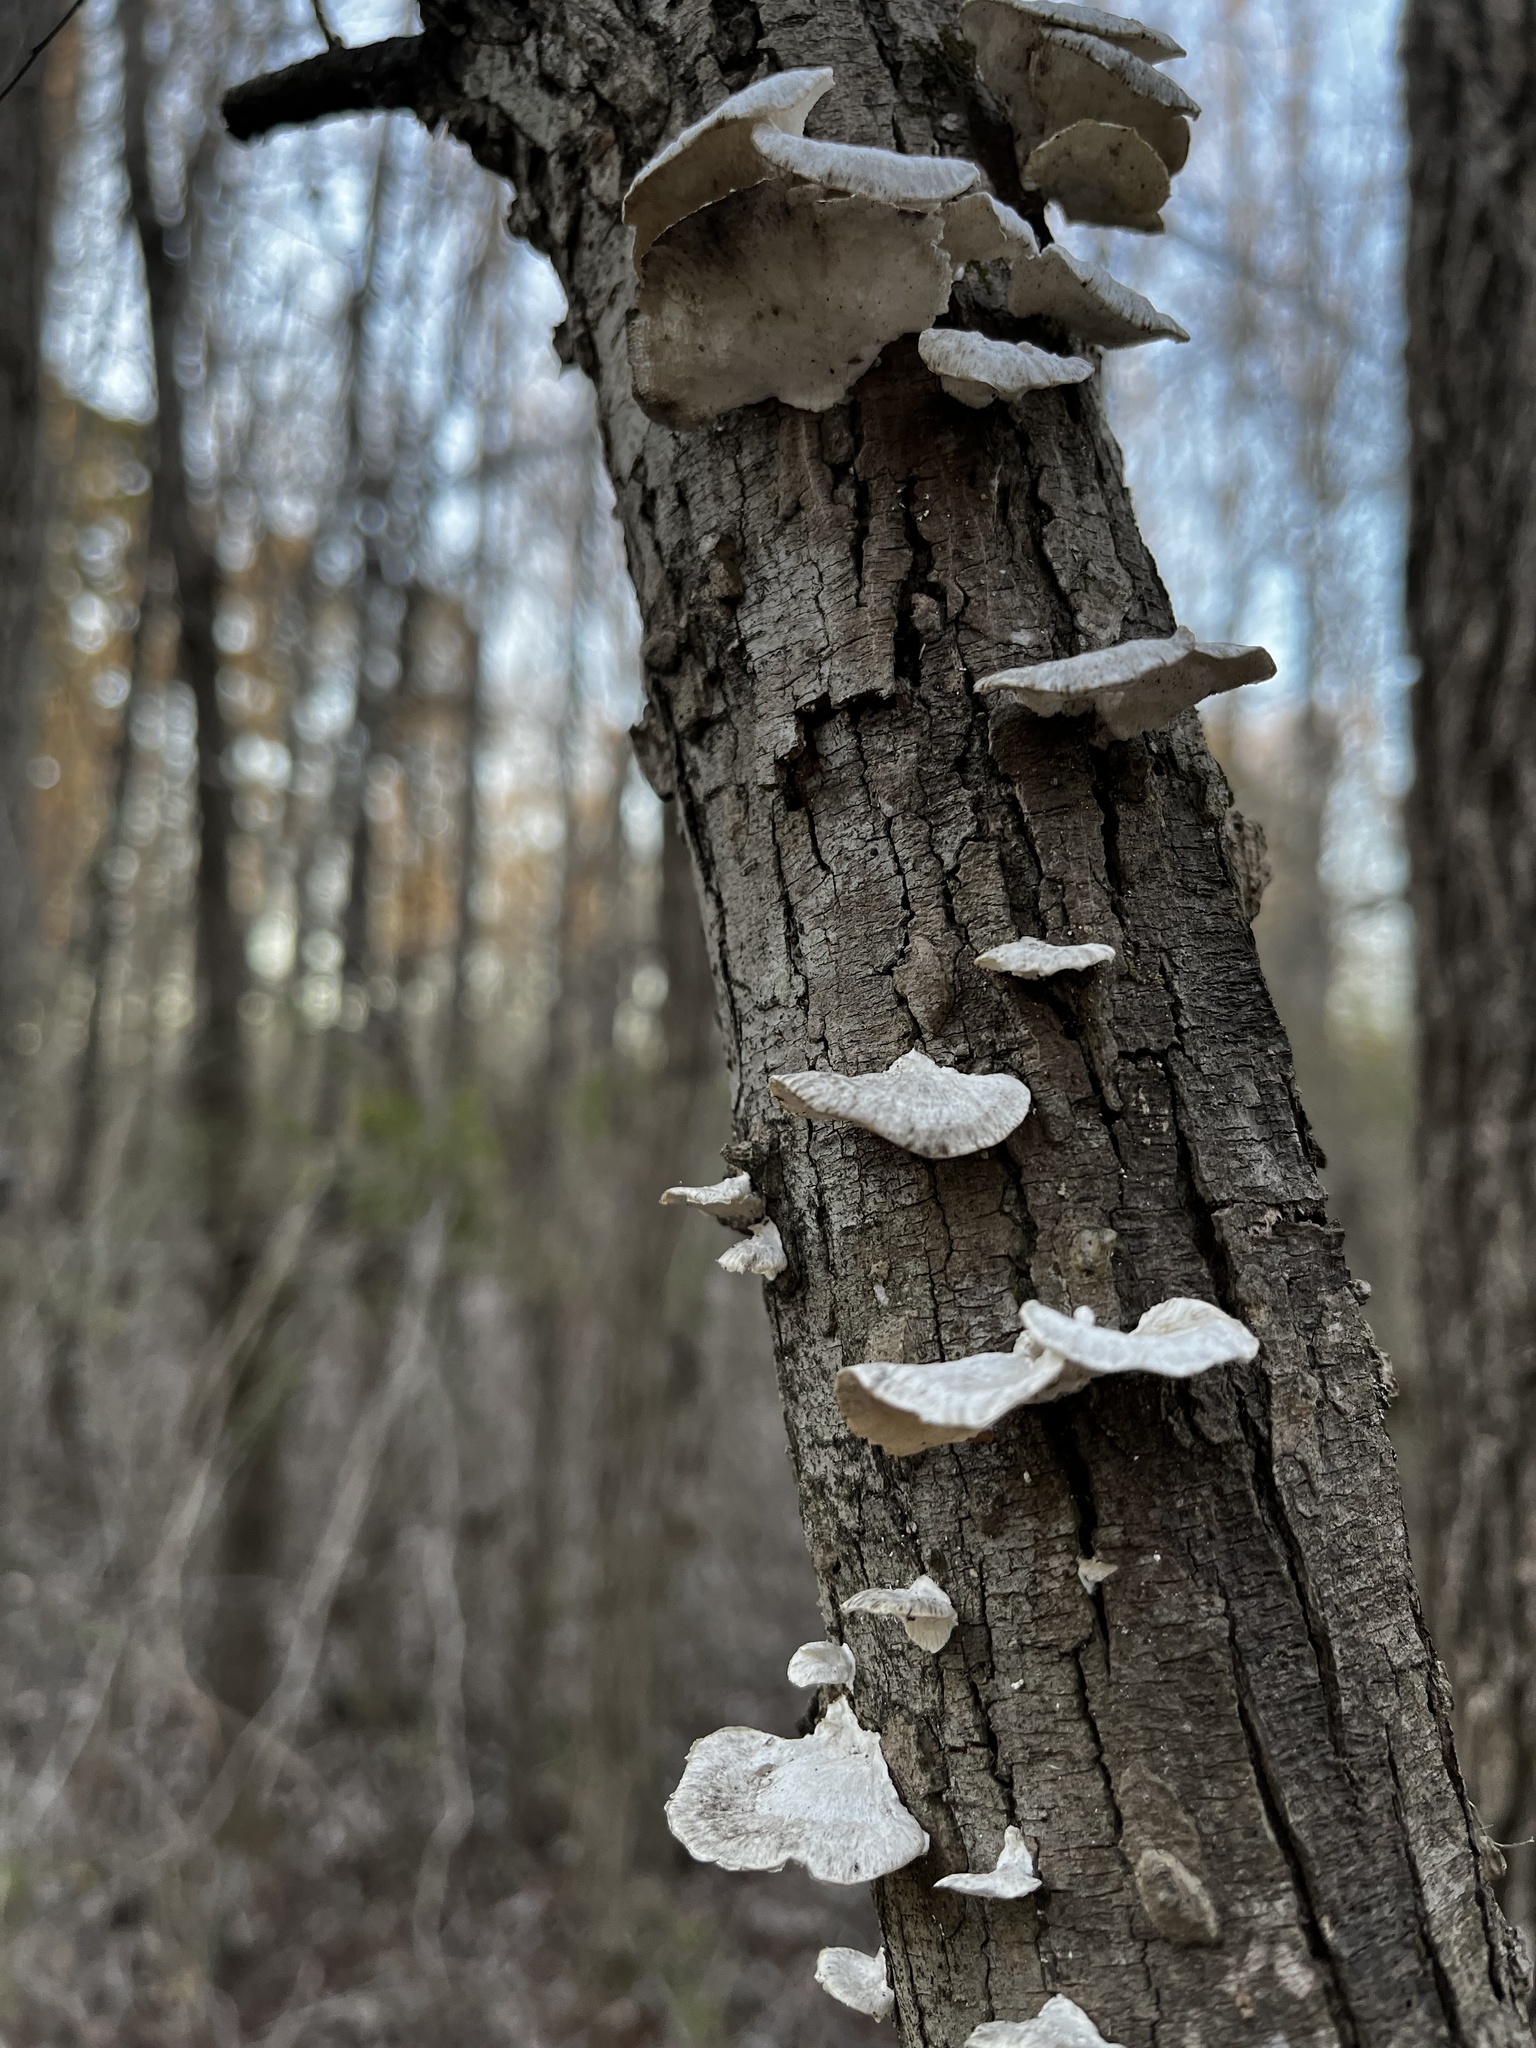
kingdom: Fungi
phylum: Basidiomycota
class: Agaricomycetes
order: Polyporales
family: Polyporaceae
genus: Poronidulus
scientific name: Poronidulus conchifer
